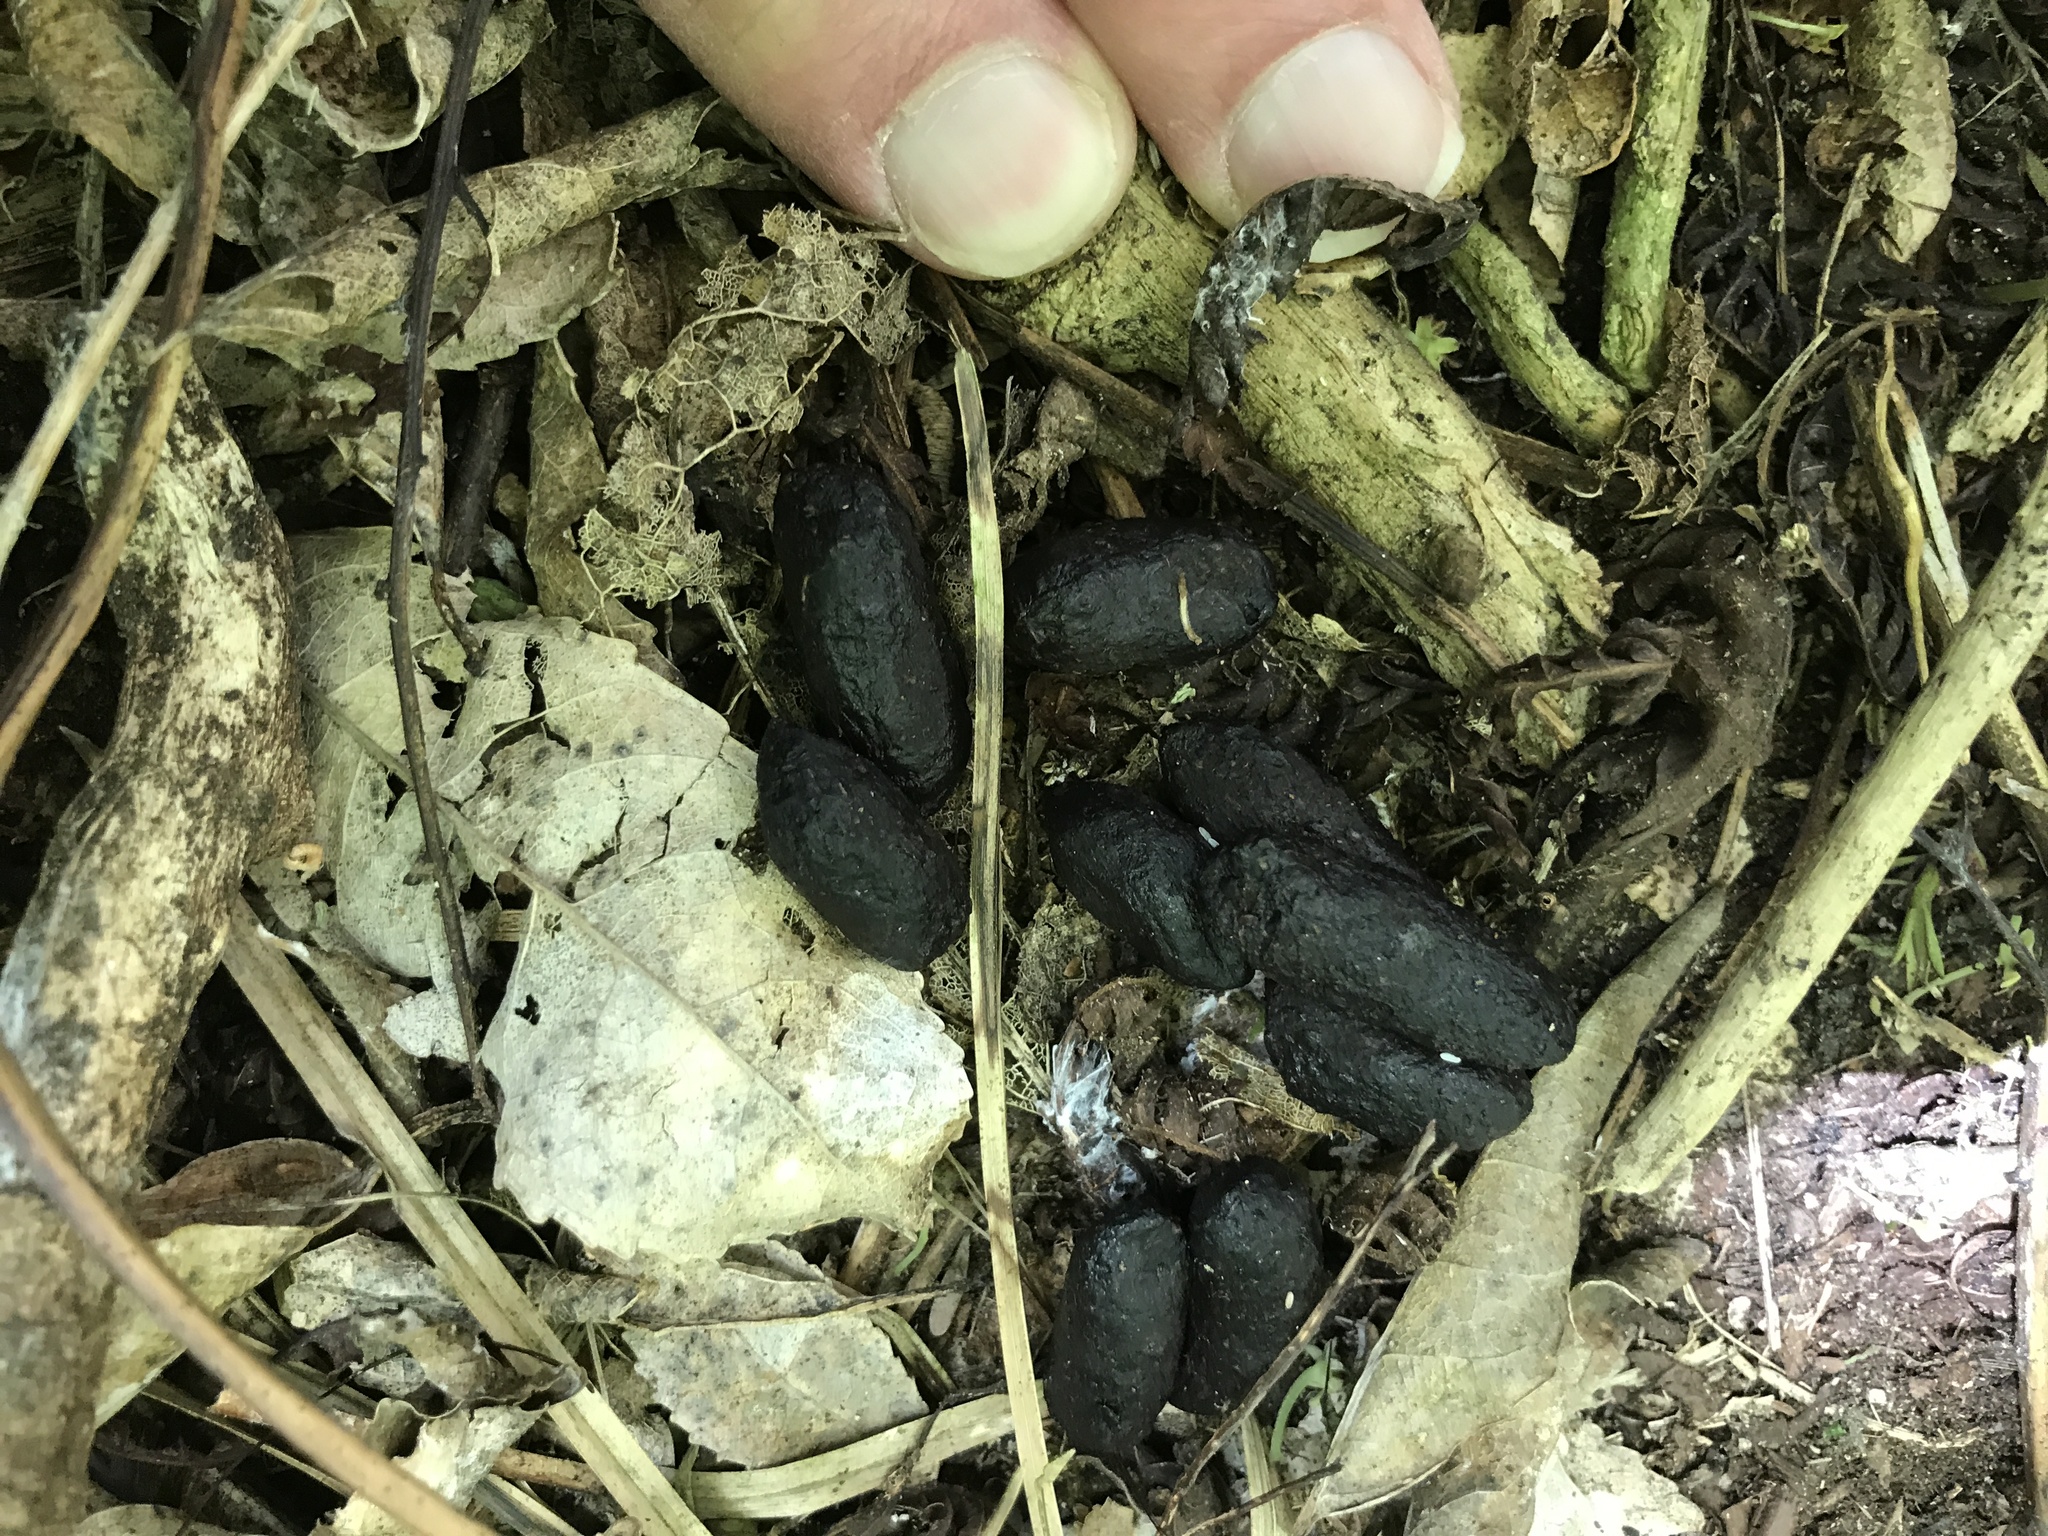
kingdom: Animalia
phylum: Chordata
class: Mammalia
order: Diprotodontia
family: Phalangeridae
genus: Trichosurus
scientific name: Trichosurus vulpecula
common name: Common brushtail
